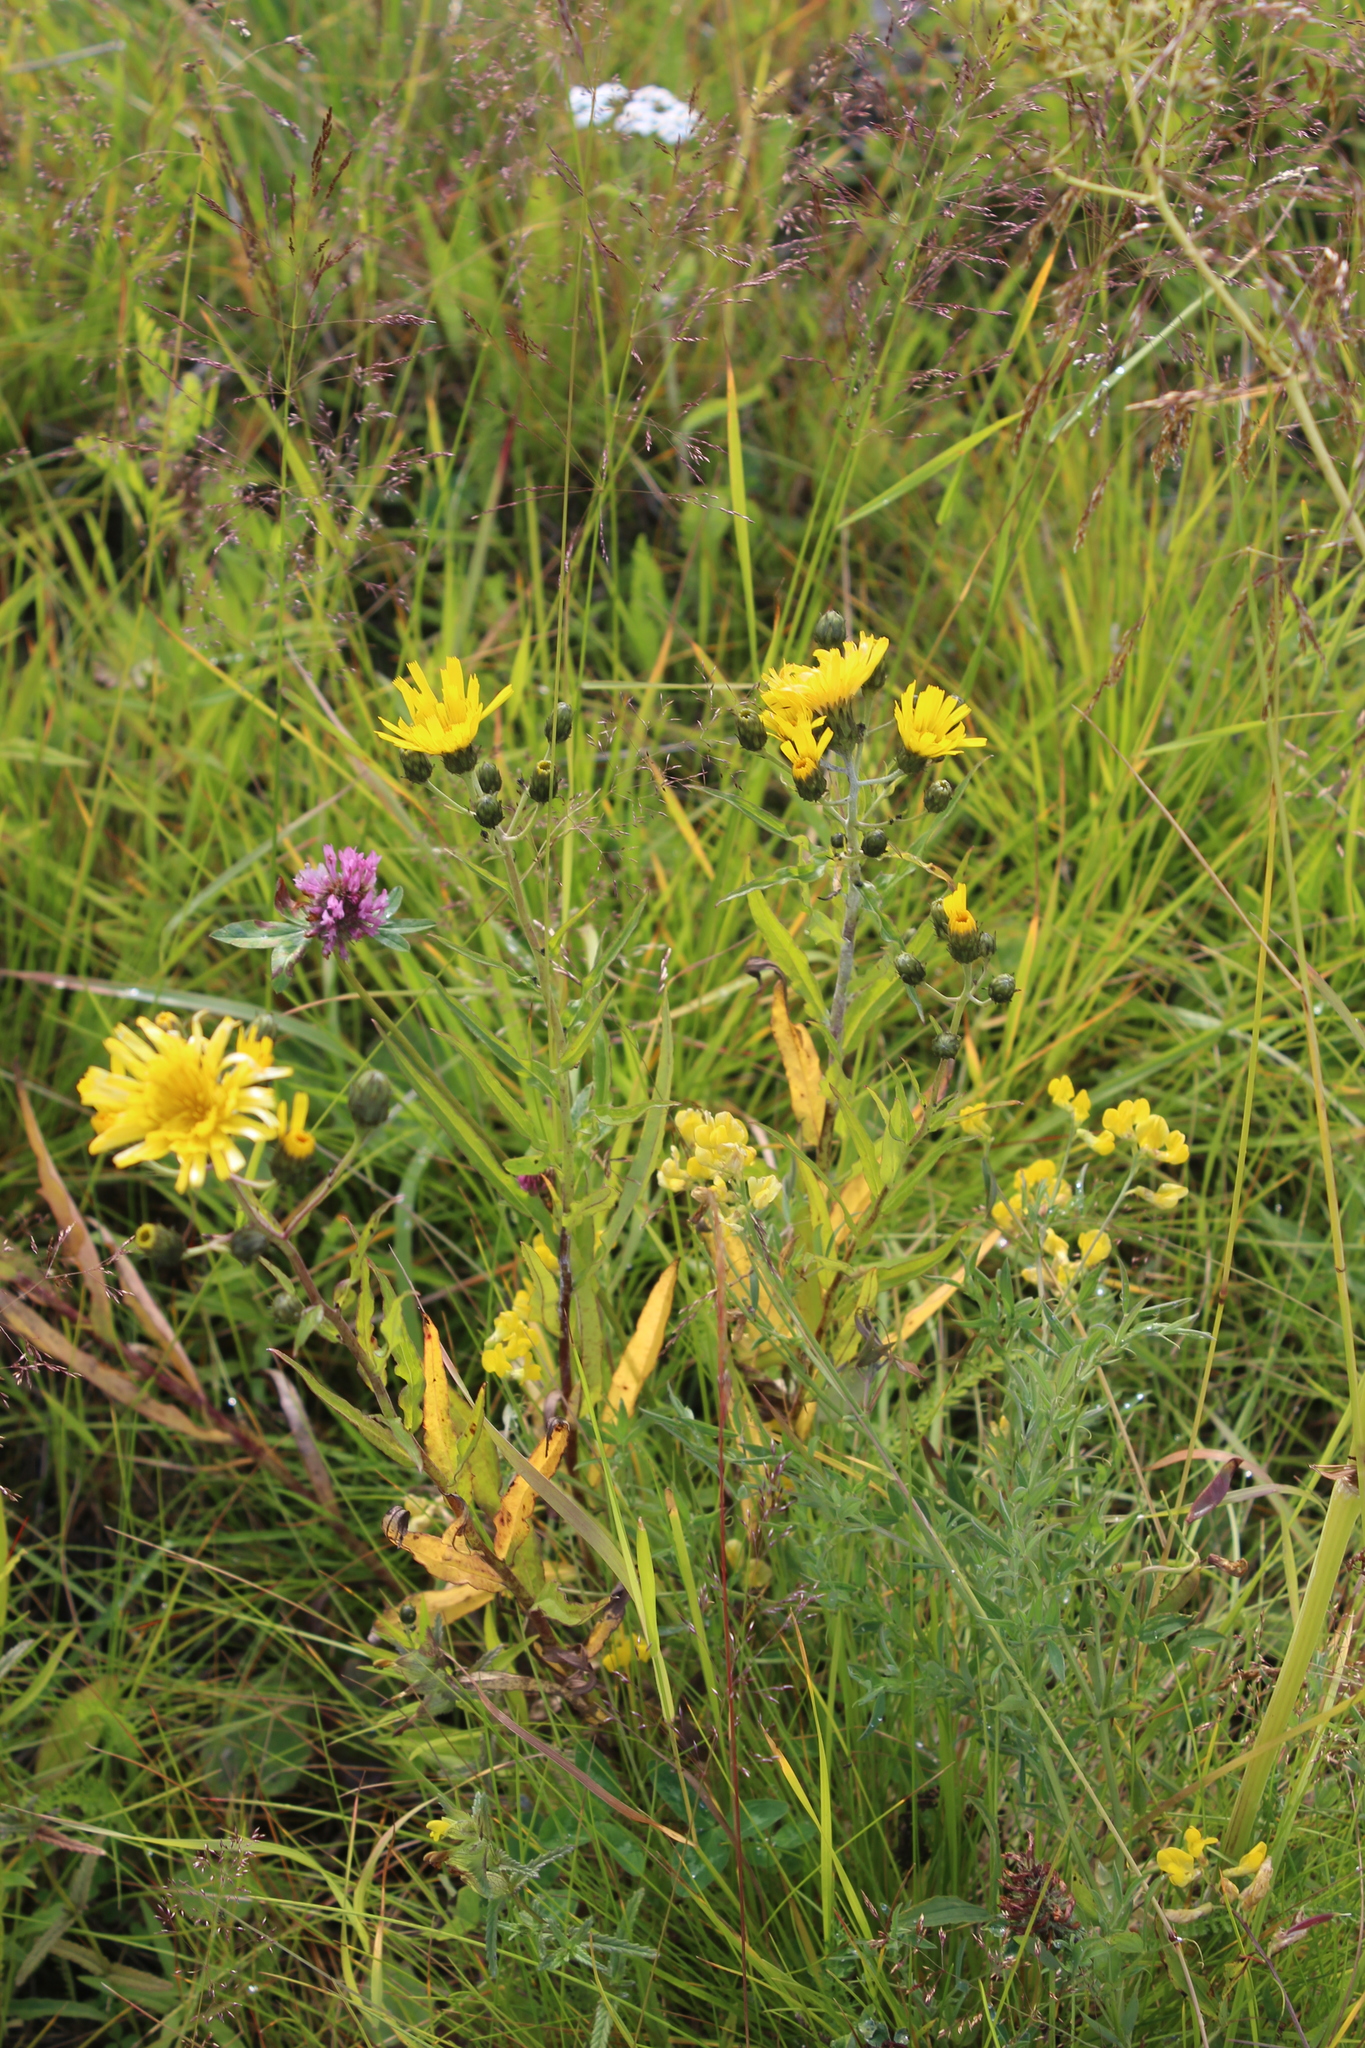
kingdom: Plantae
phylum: Tracheophyta
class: Magnoliopsida
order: Asterales
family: Asteraceae
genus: Hieracium
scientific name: Hieracium umbellatum
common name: Northern hawkweed
